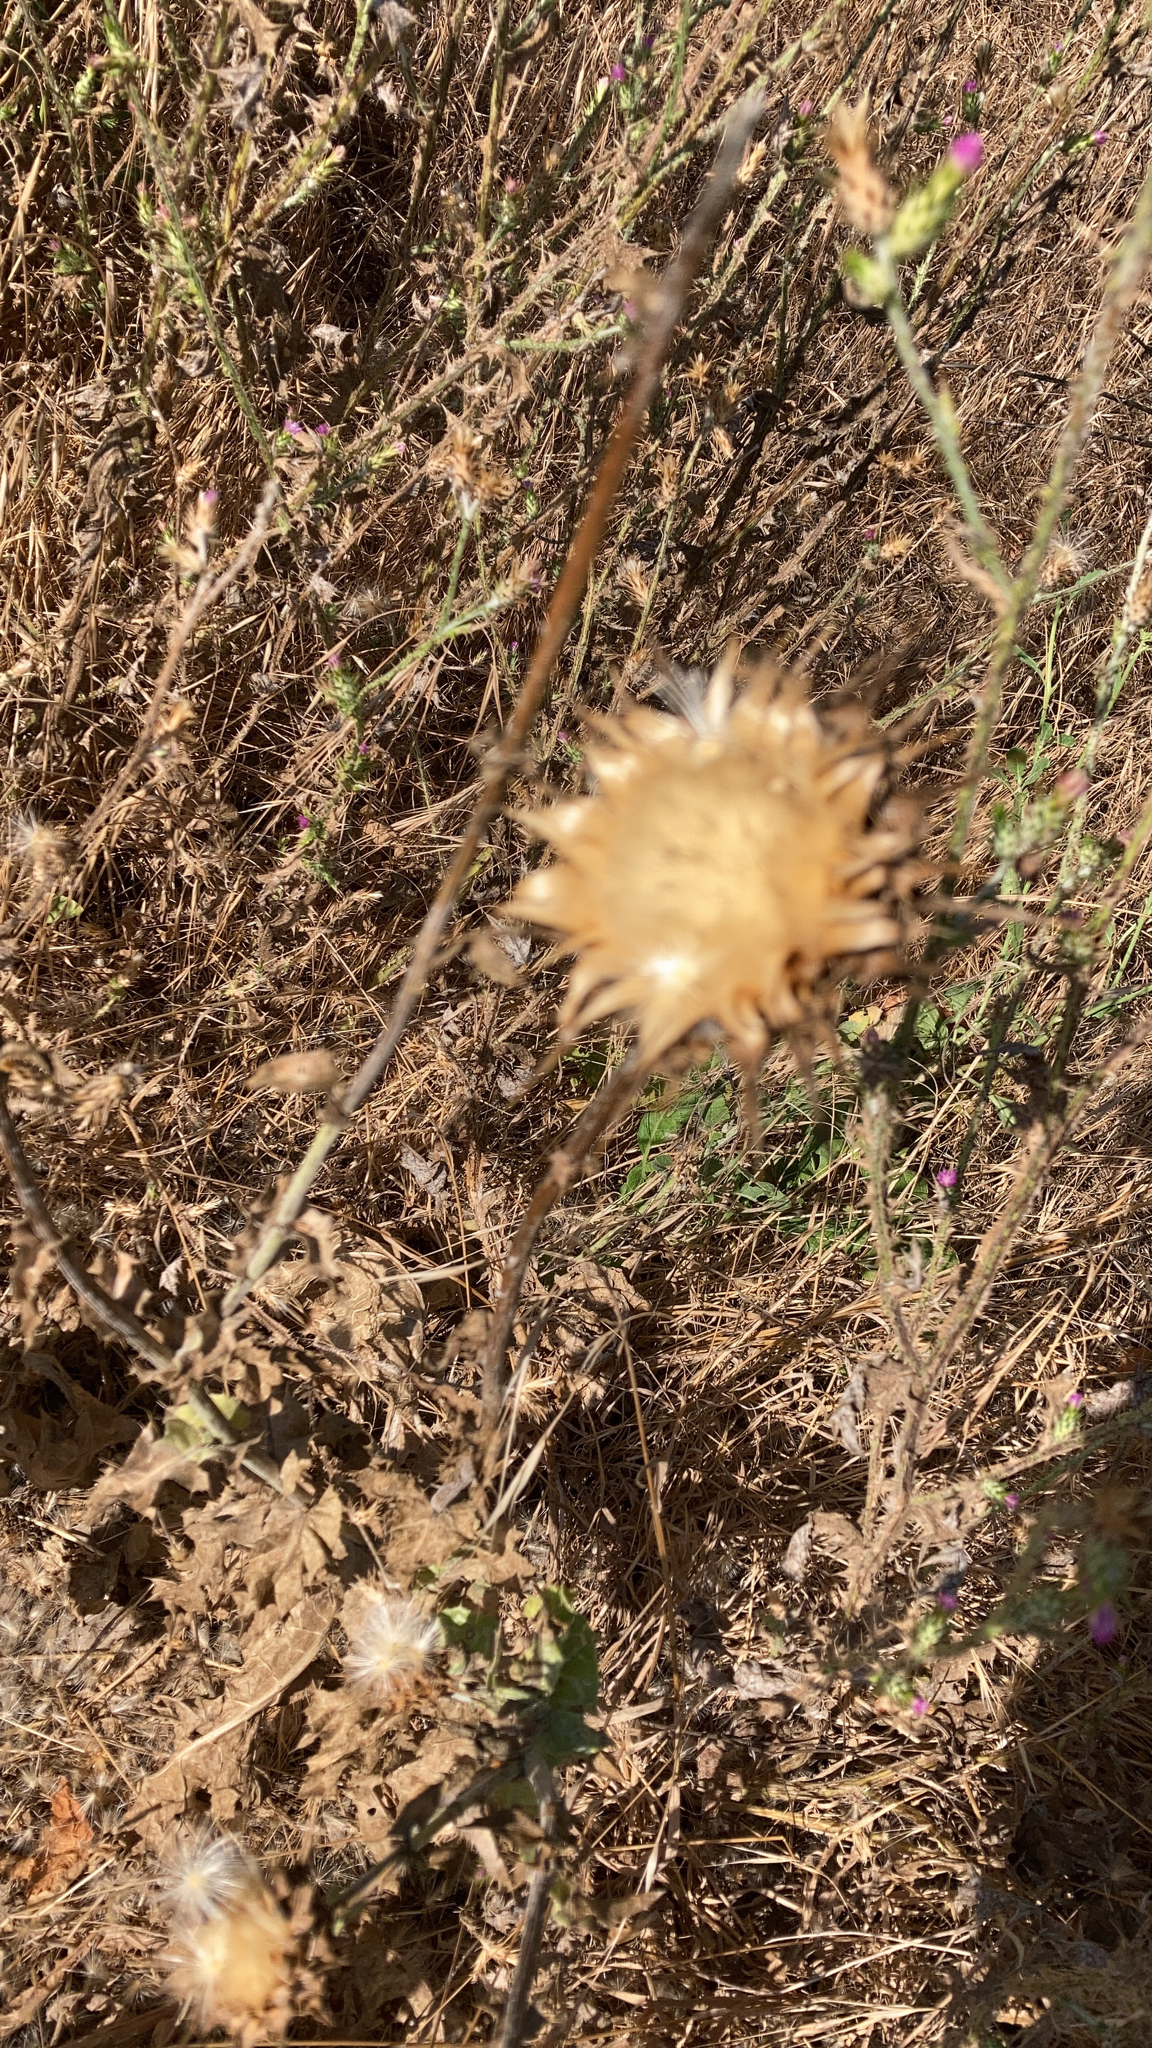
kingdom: Plantae
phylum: Tracheophyta
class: Magnoliopsida
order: Asterales
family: Asteraceae
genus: Silybum
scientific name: Silybum marianum
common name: Milk thistle
